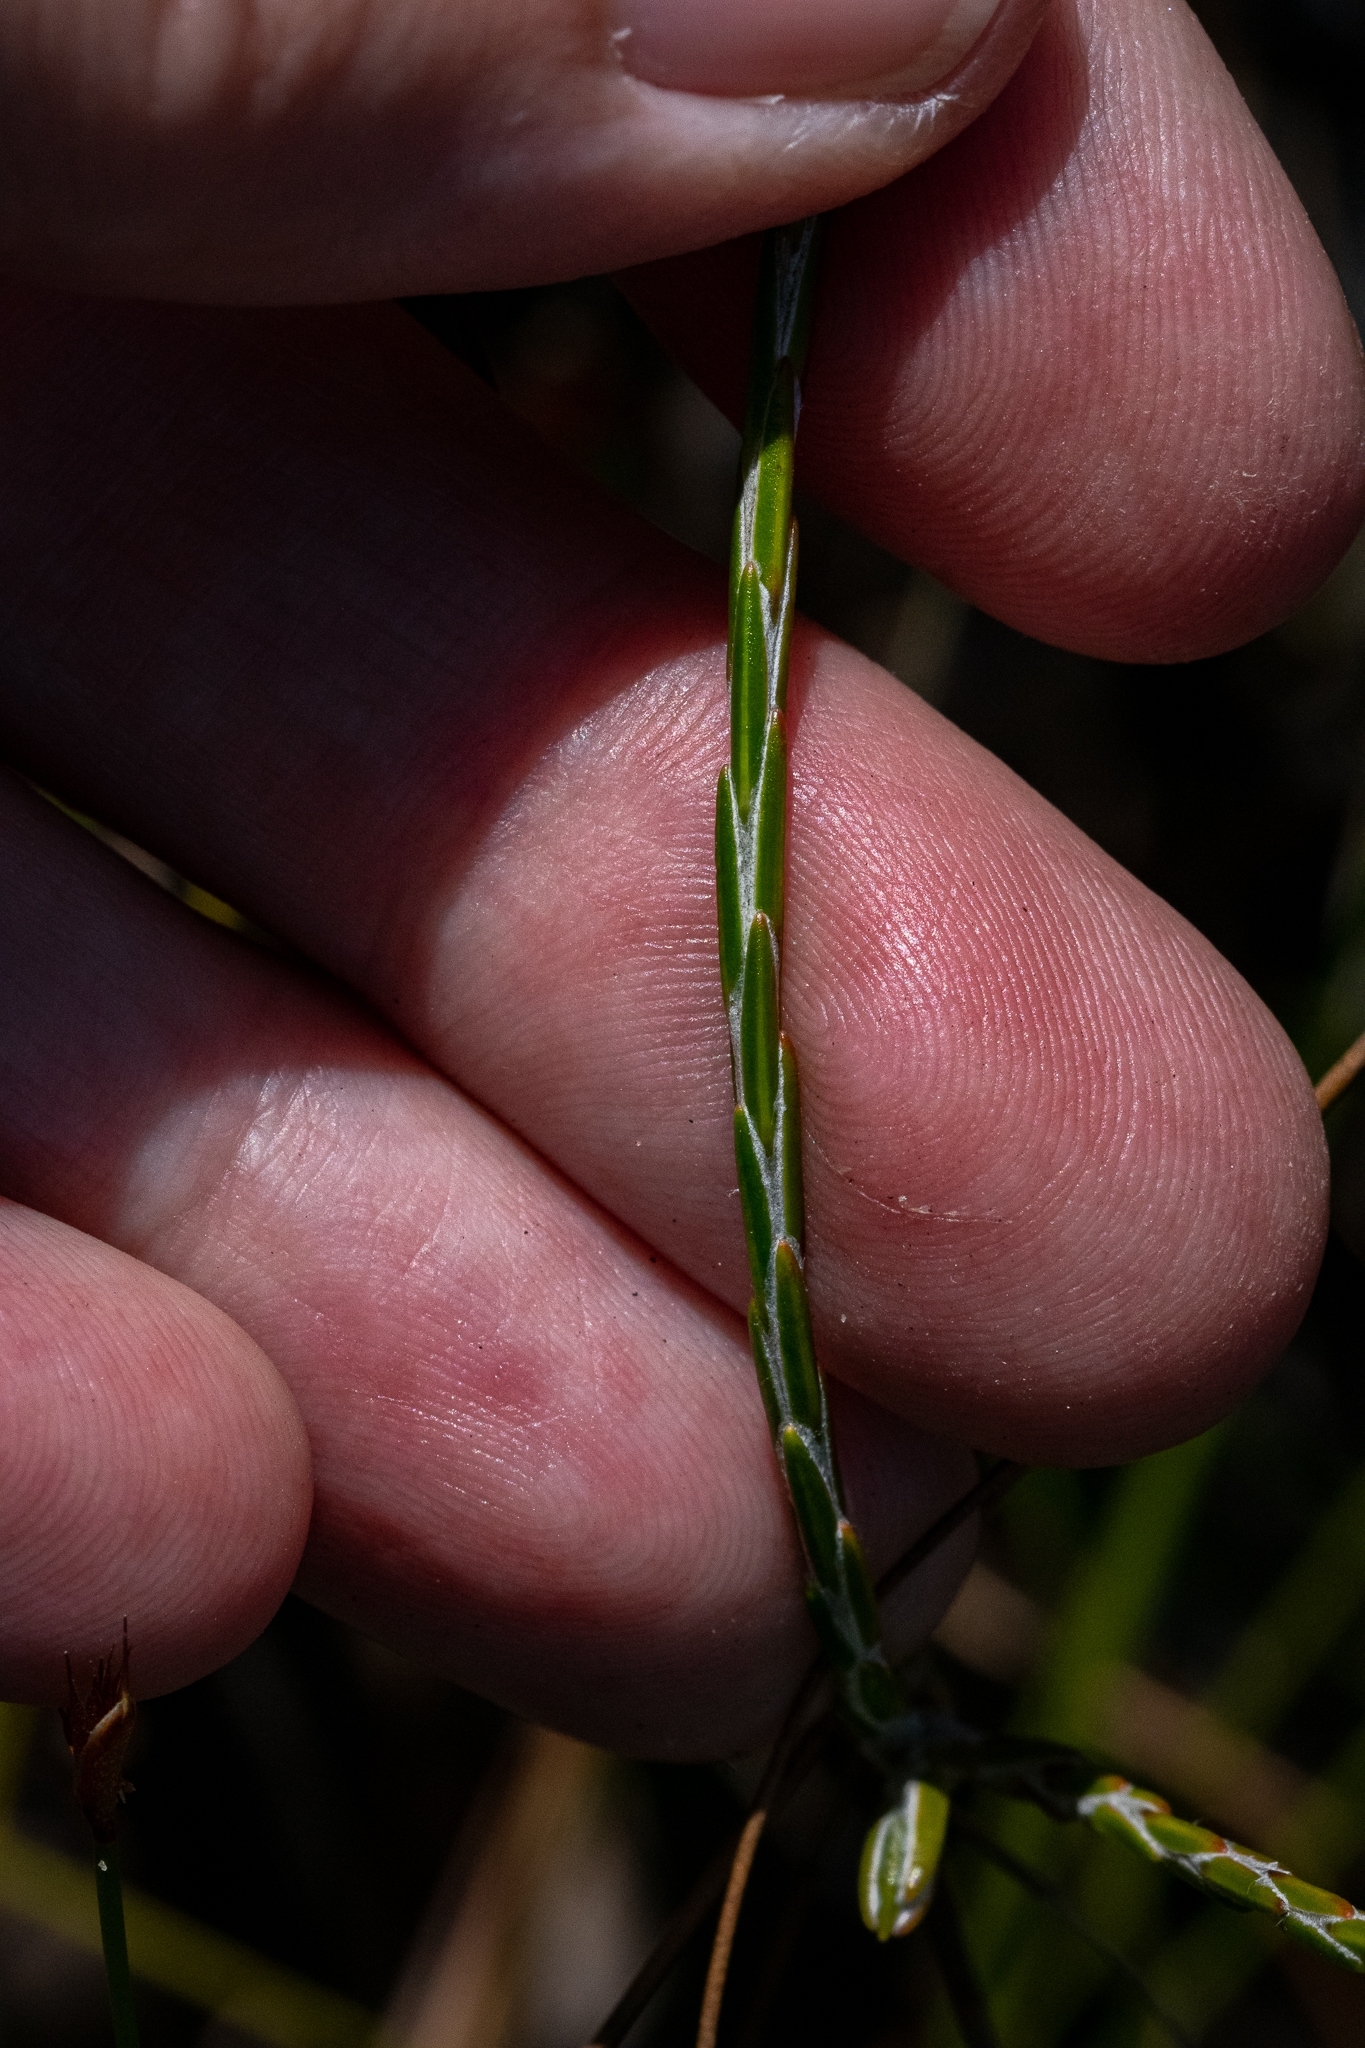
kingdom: Plantae
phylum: Tracheophyta
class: Magnoliopsida
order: Asterales
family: Asteraceae
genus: Edmondia
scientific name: Edmondia sesamoides
